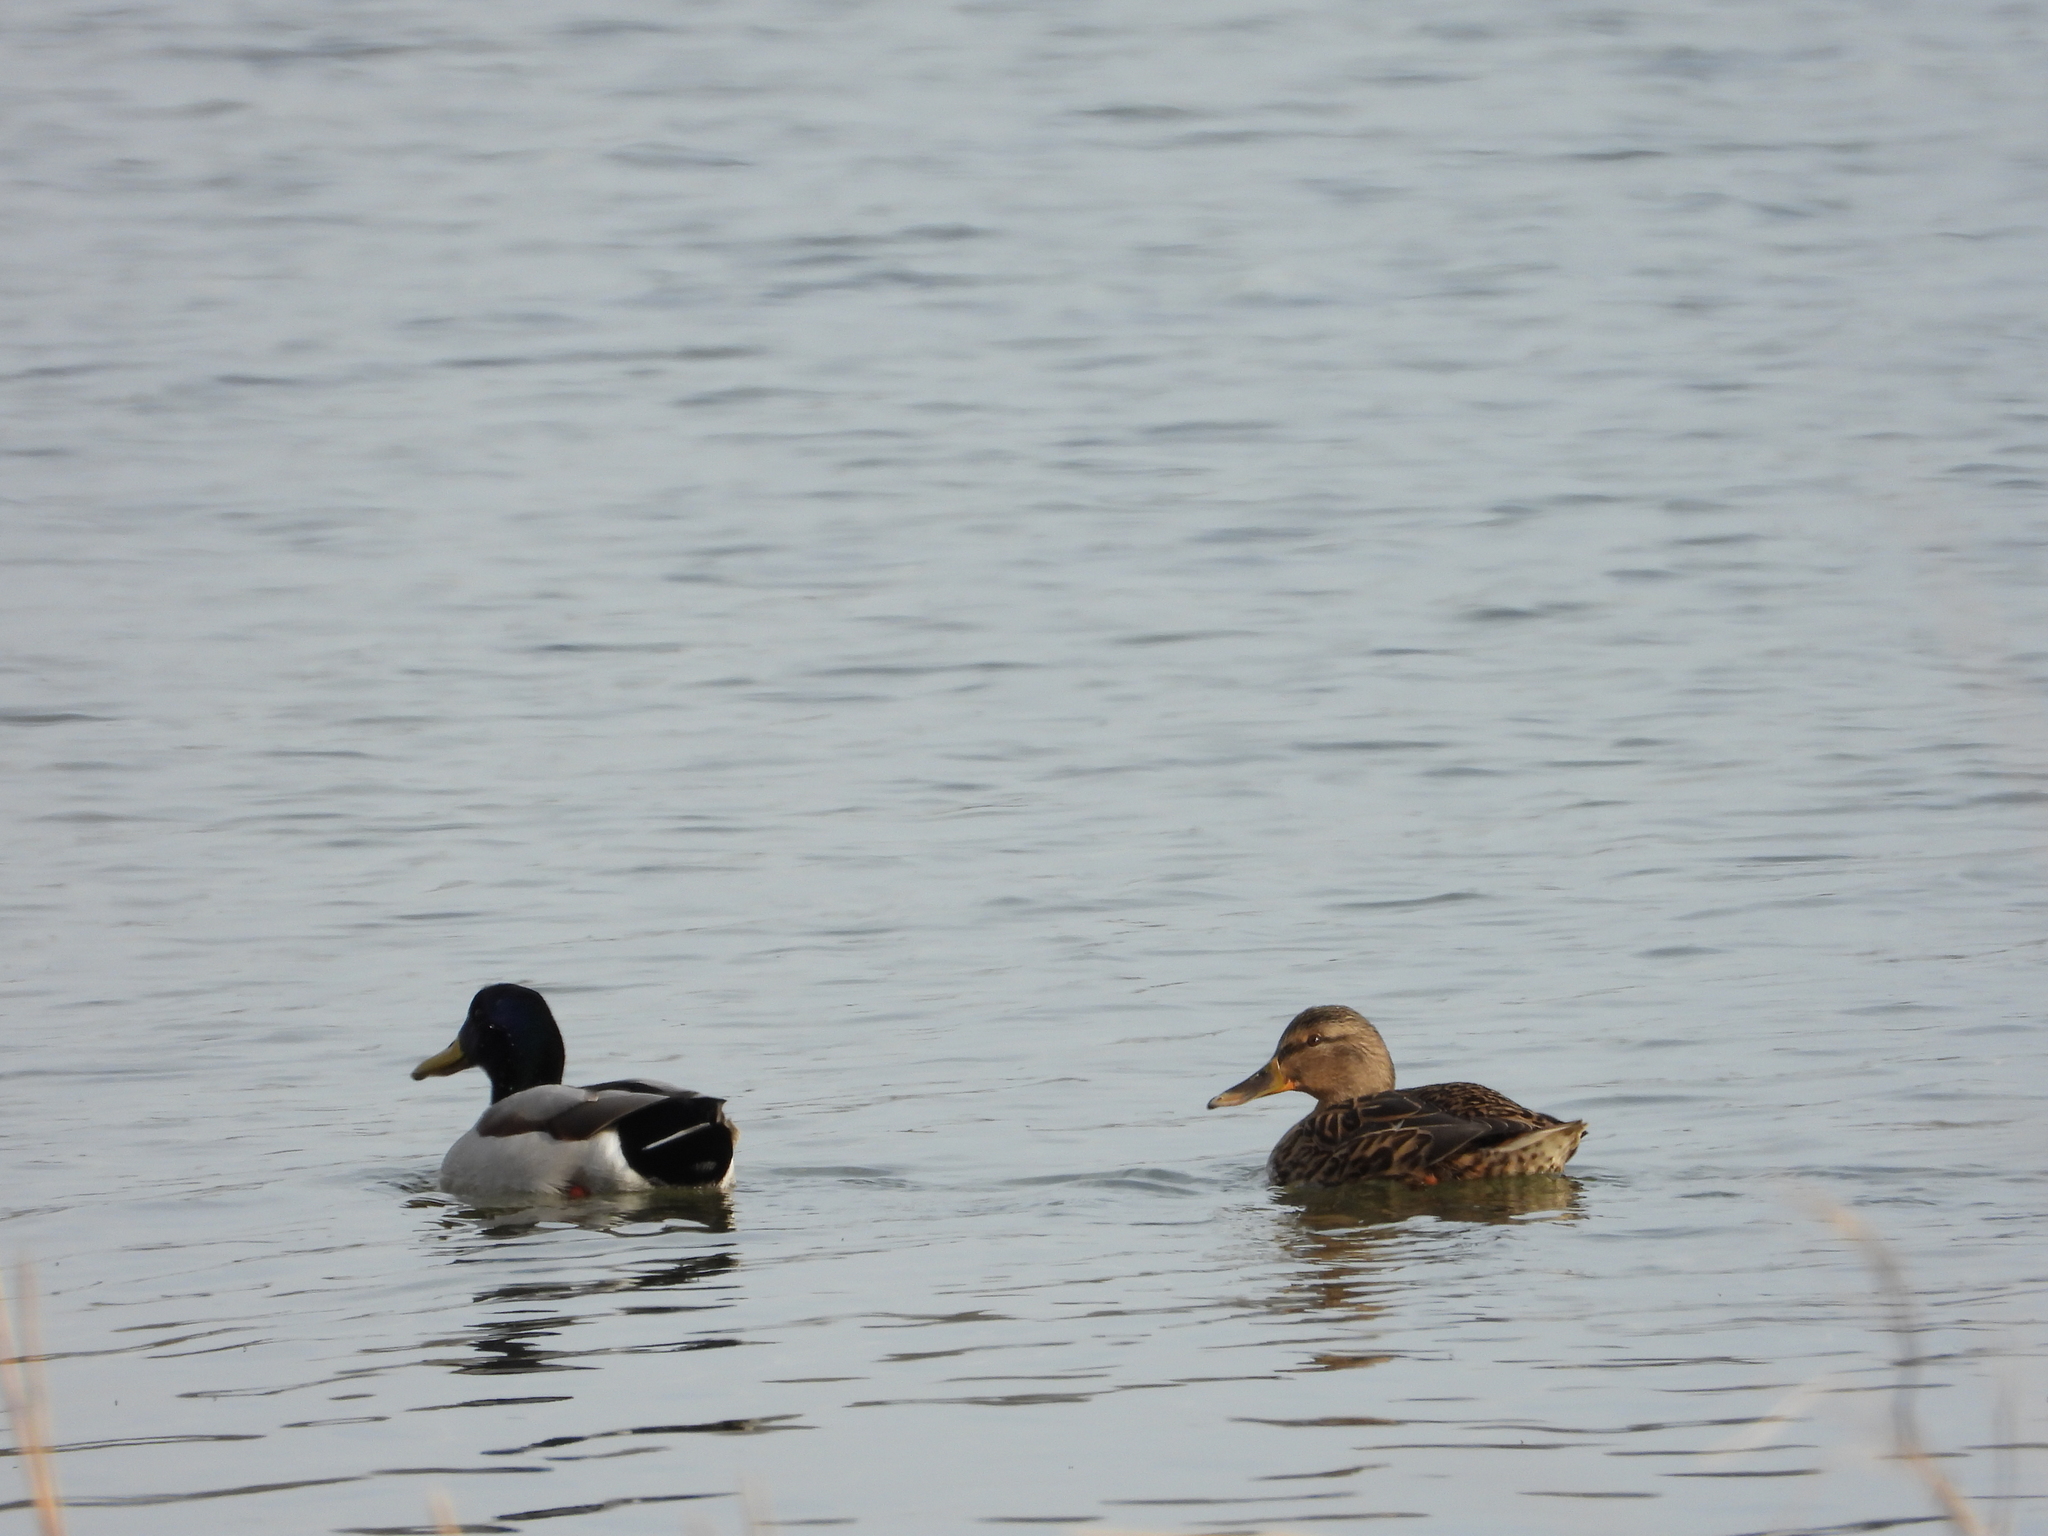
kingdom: Animalia
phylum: Chordata
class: Aves
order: Anseriformes
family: Anatidae
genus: Anas
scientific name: Anas platyrhynchos
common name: Mallard
